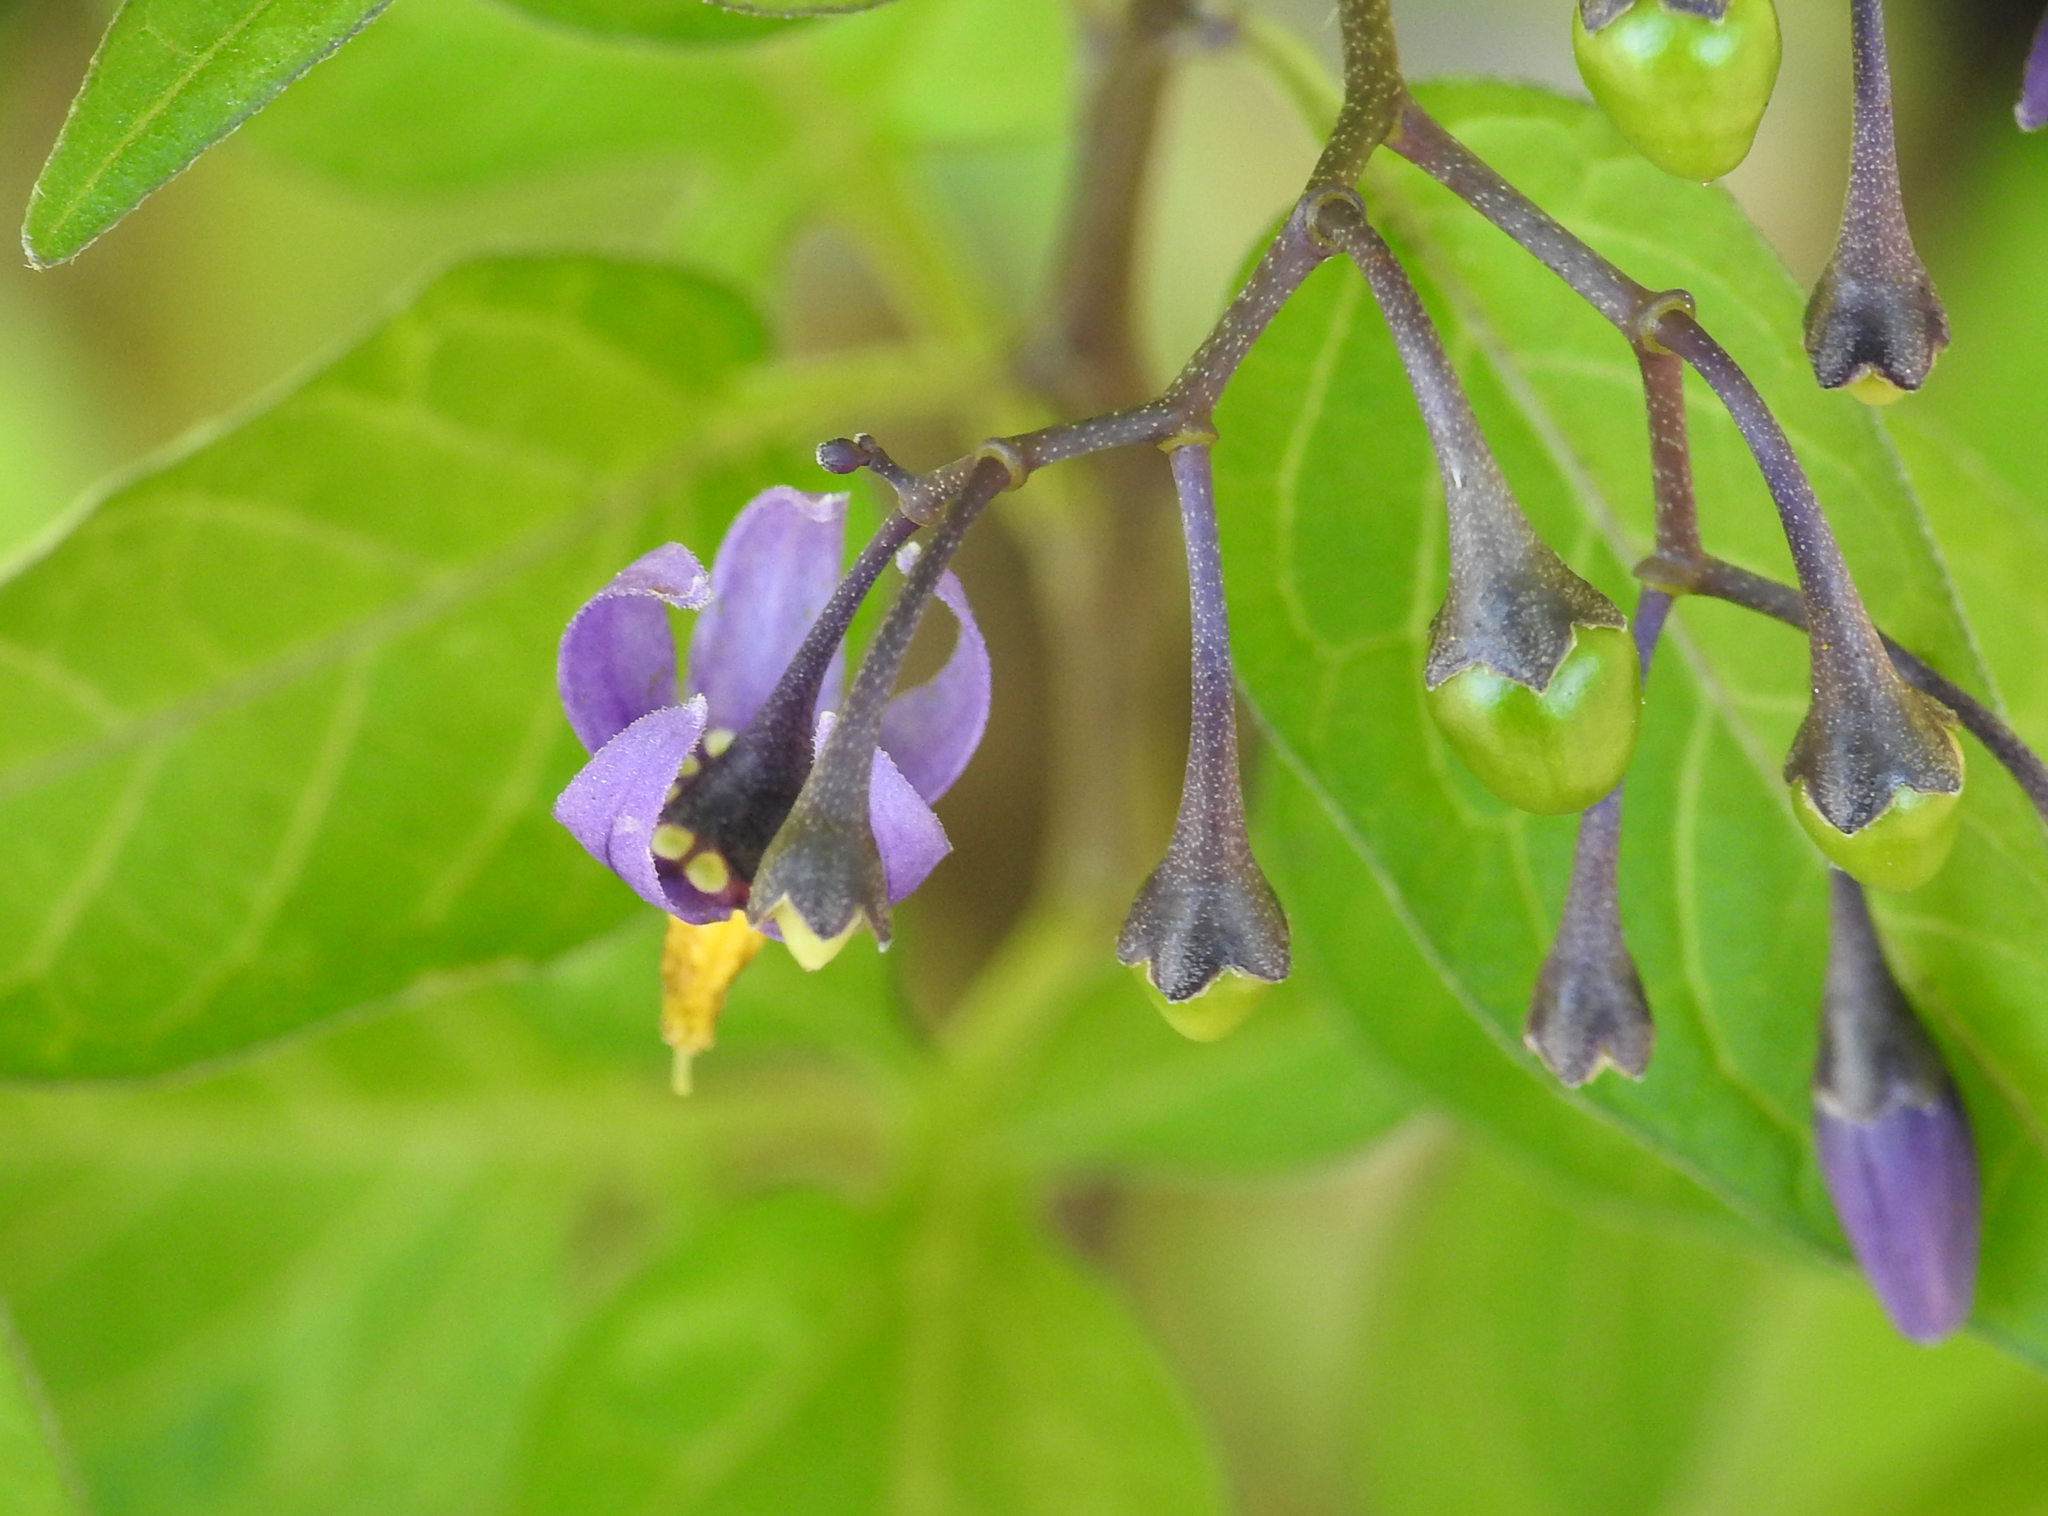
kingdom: Plantae
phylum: Tracheophyta
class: Magnoliopsida
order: Solanales
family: Solanaceae
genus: Solanum
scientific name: Solanum dulcamara
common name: Climbing nightshade
